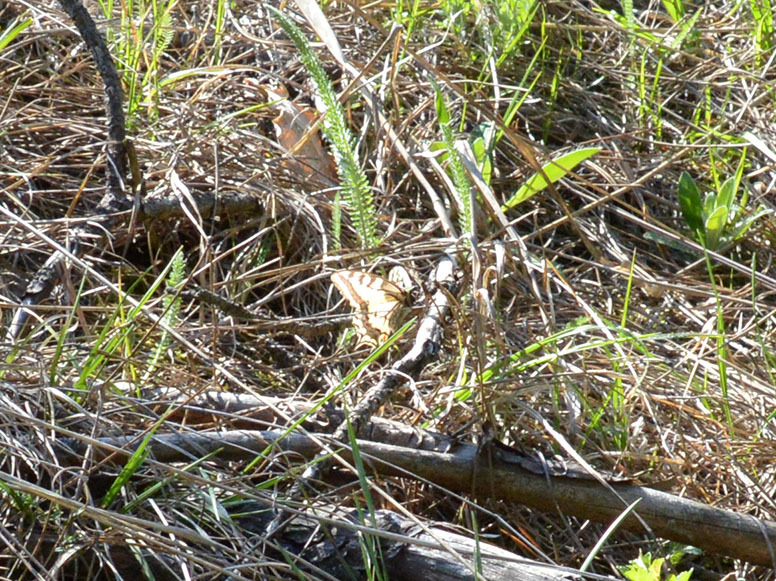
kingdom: Animalia
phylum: Arthropoda
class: Insecta
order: Lepidoptera
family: Papilionidae
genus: Papilio
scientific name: Papilio machaon
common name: Swallowtail
